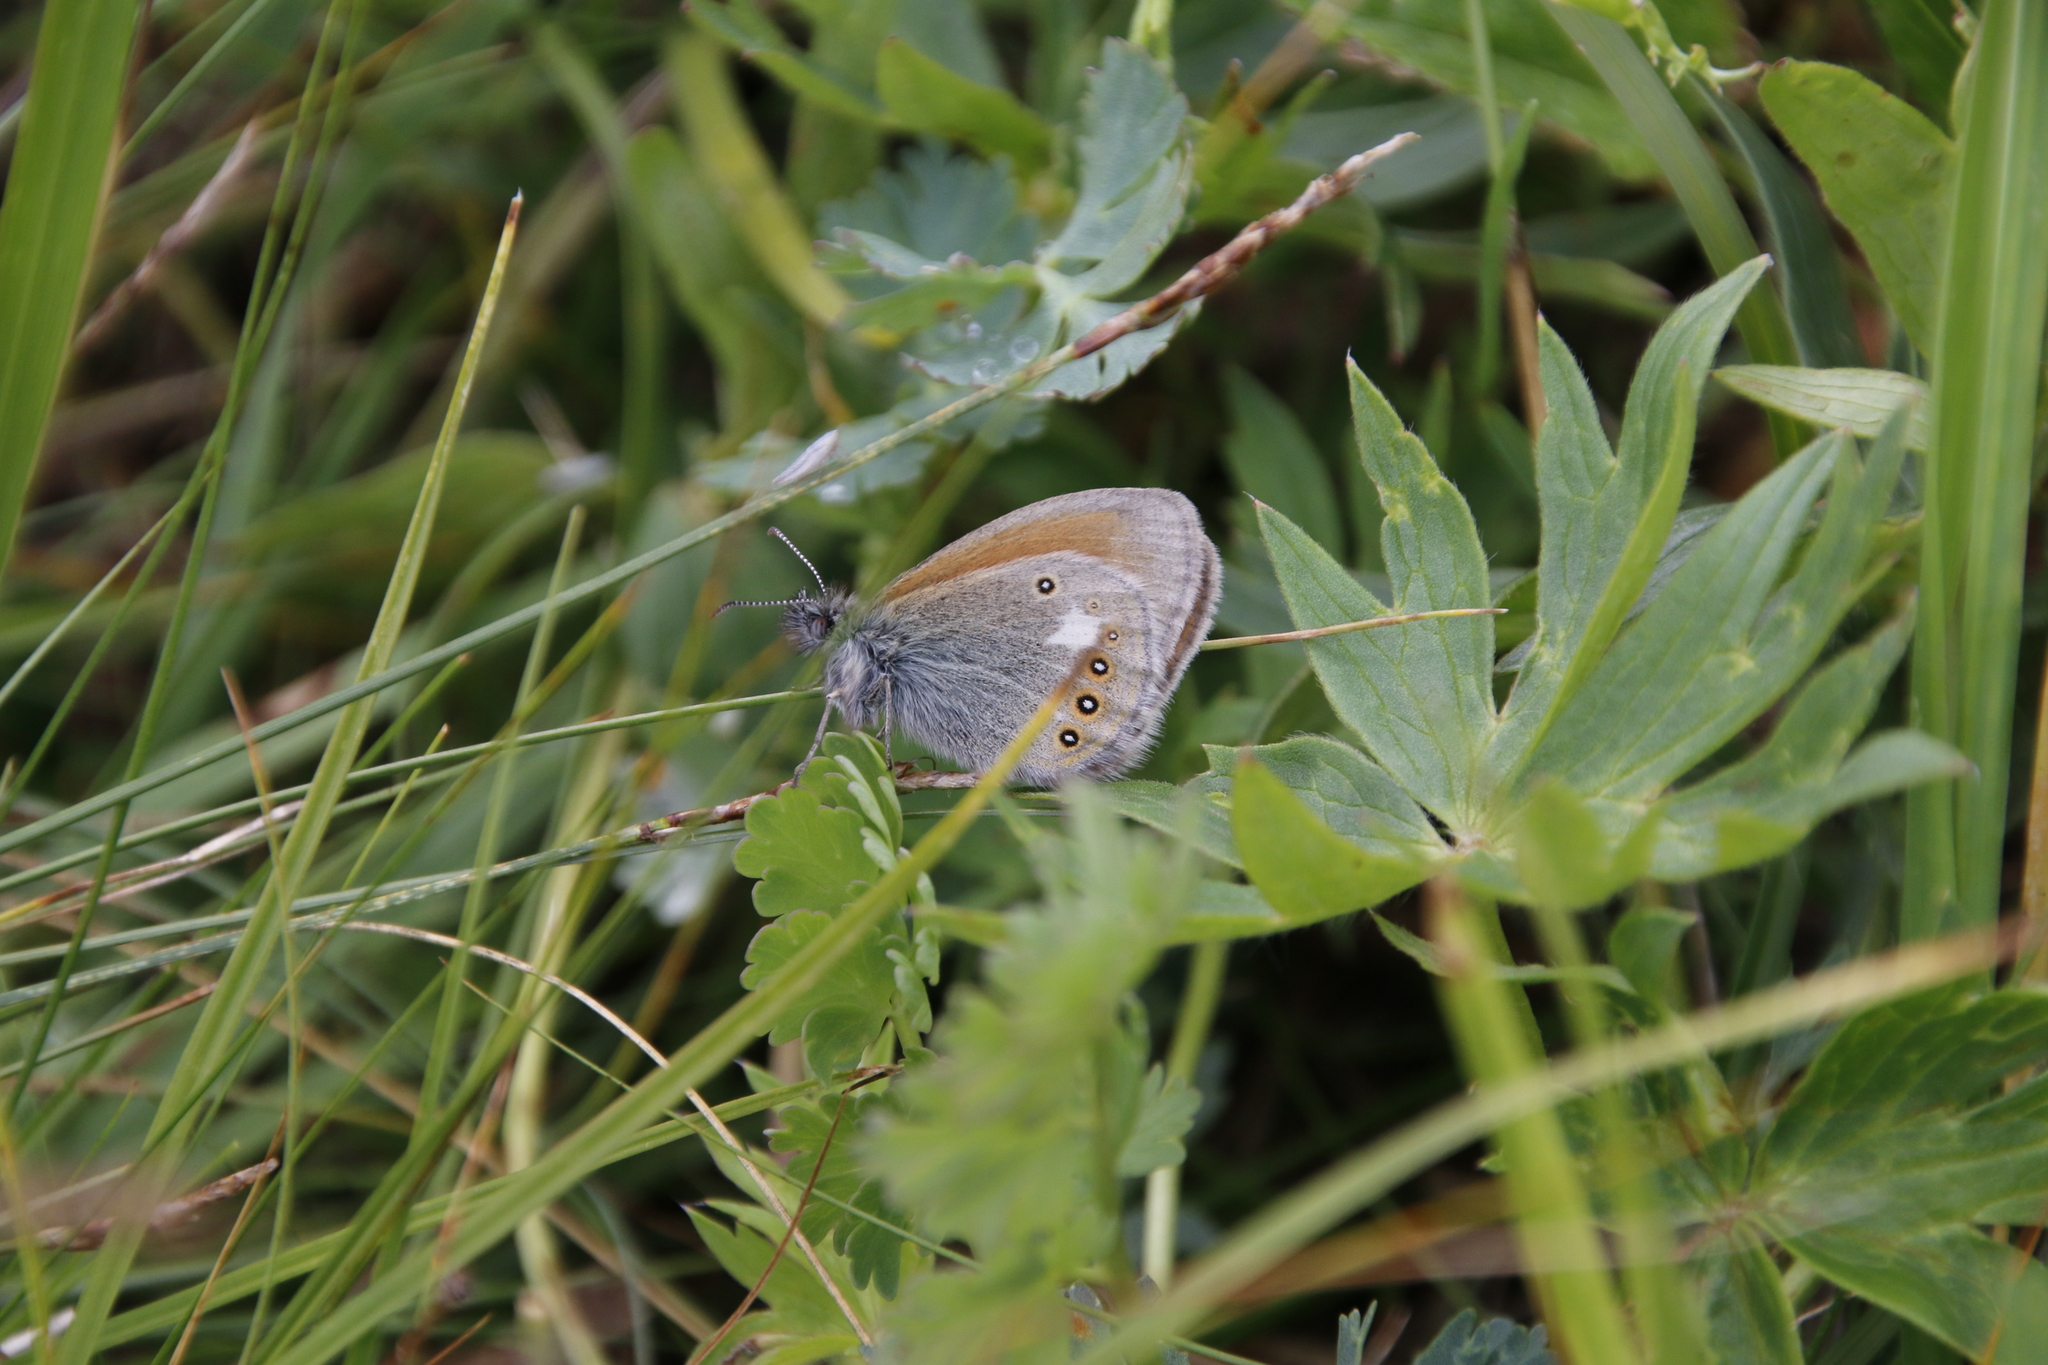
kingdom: Animalia
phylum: Arthropoda
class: Insecta
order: Lepidoptera
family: Nymphalidae
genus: Coenonympha
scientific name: Coenonympha iphis
